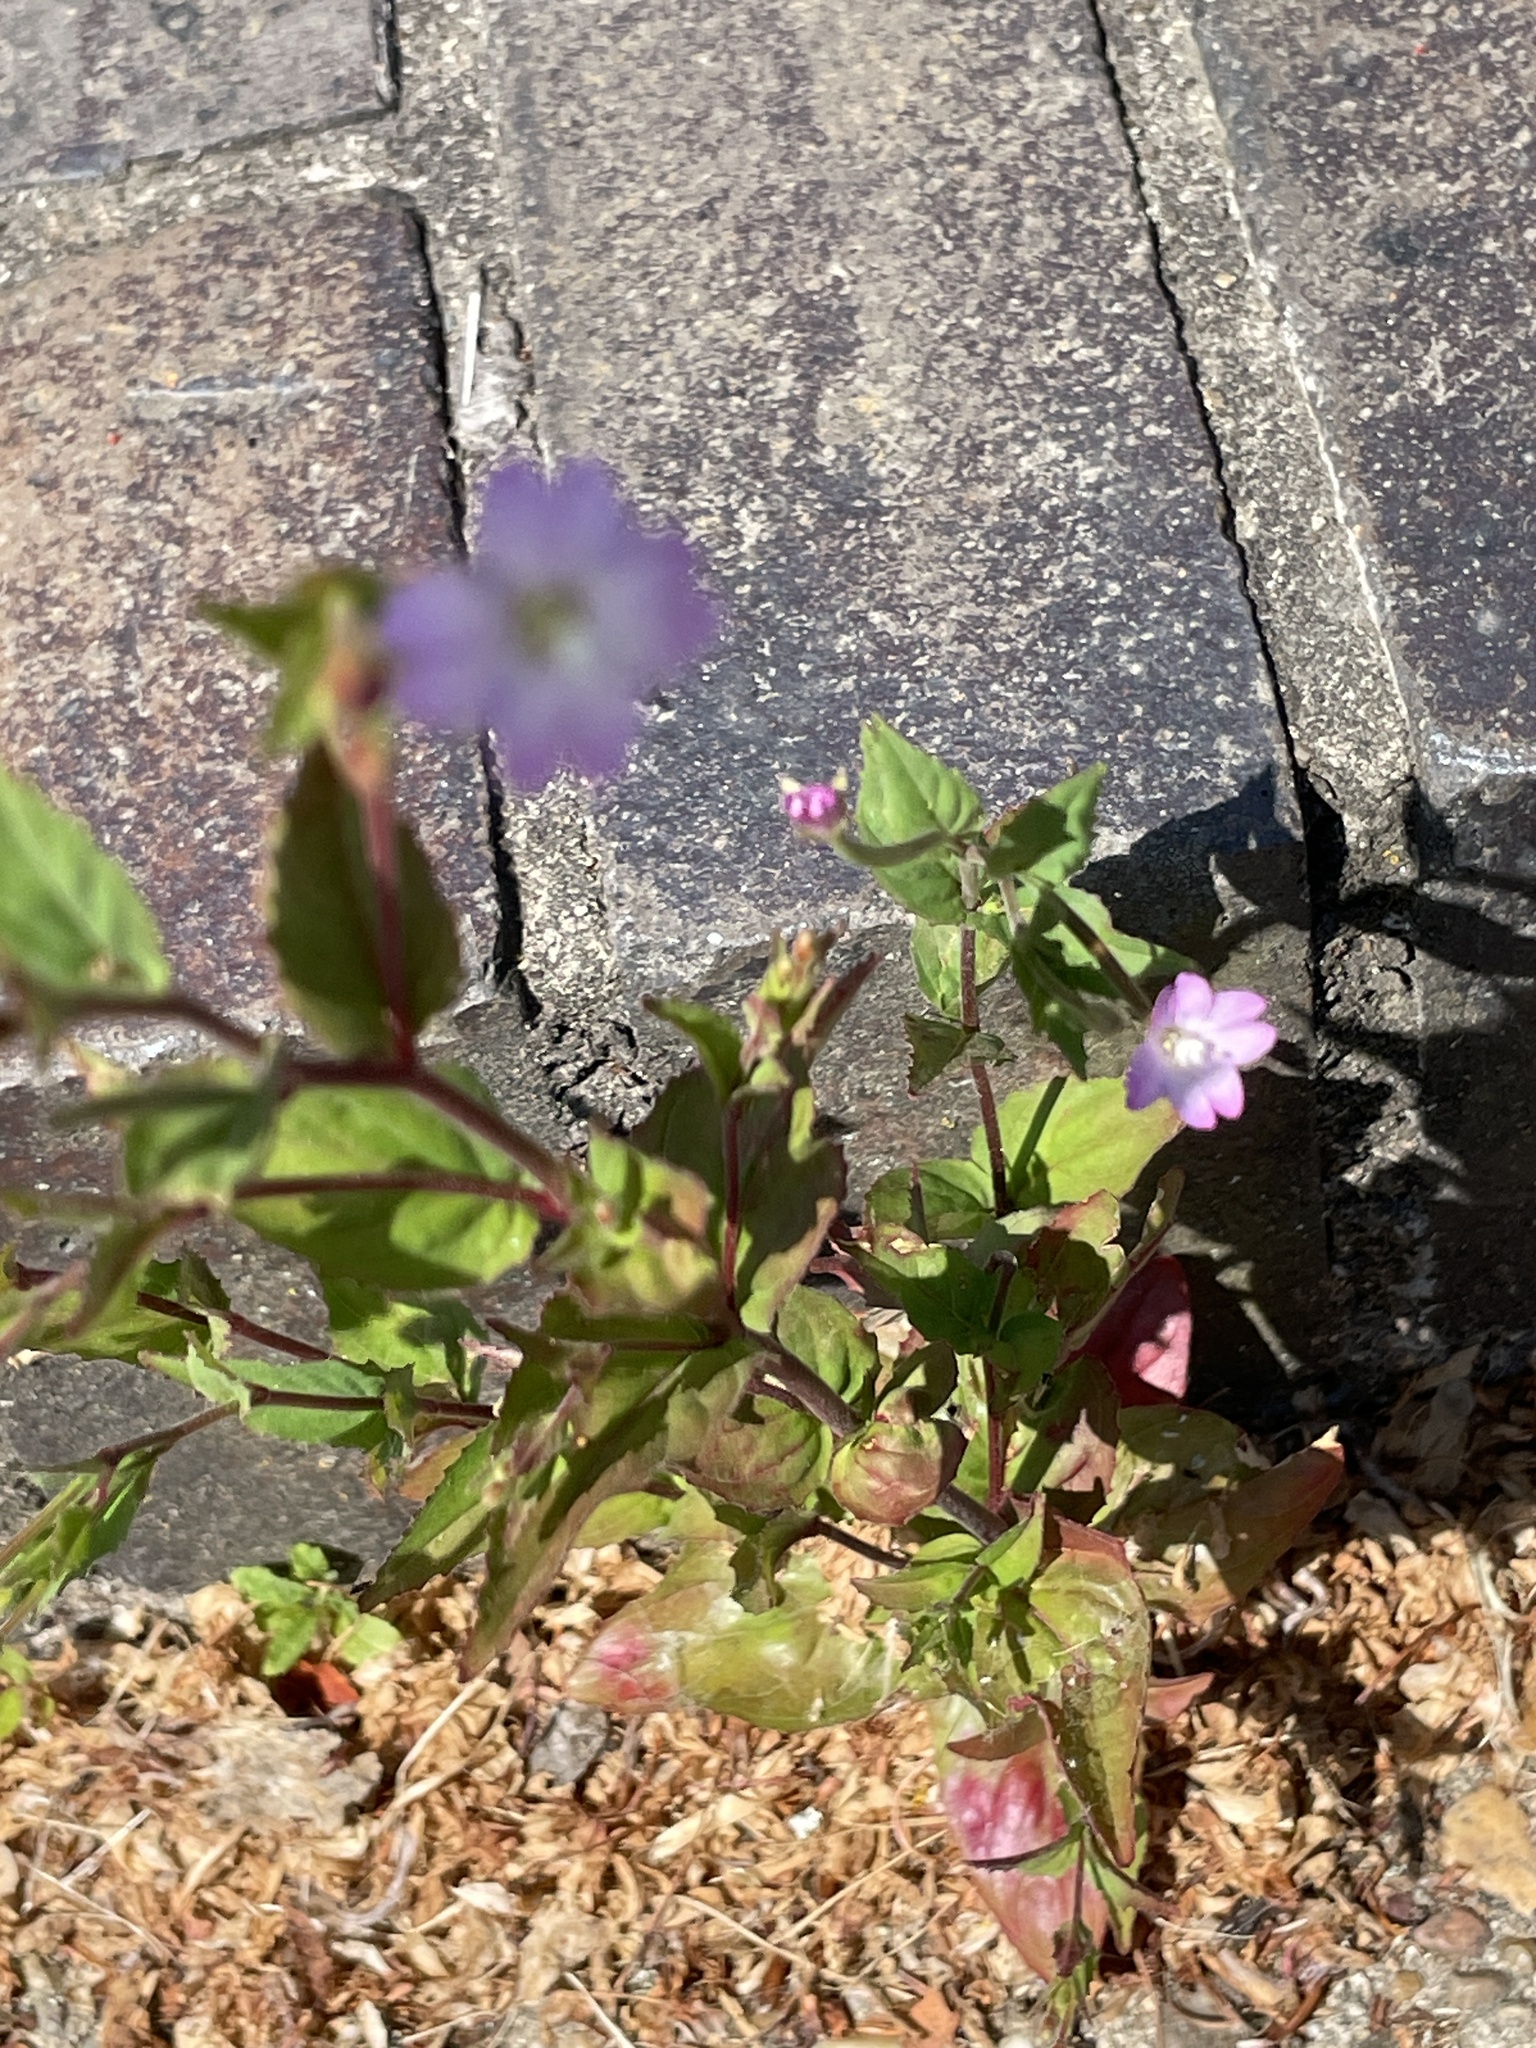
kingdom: Plantae
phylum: Tracheophyta
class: Magnoliopsida
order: Myrtales
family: Onagraceae
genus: Epilobium
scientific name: Epilobium montanum
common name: Broad-leaved willowherb
